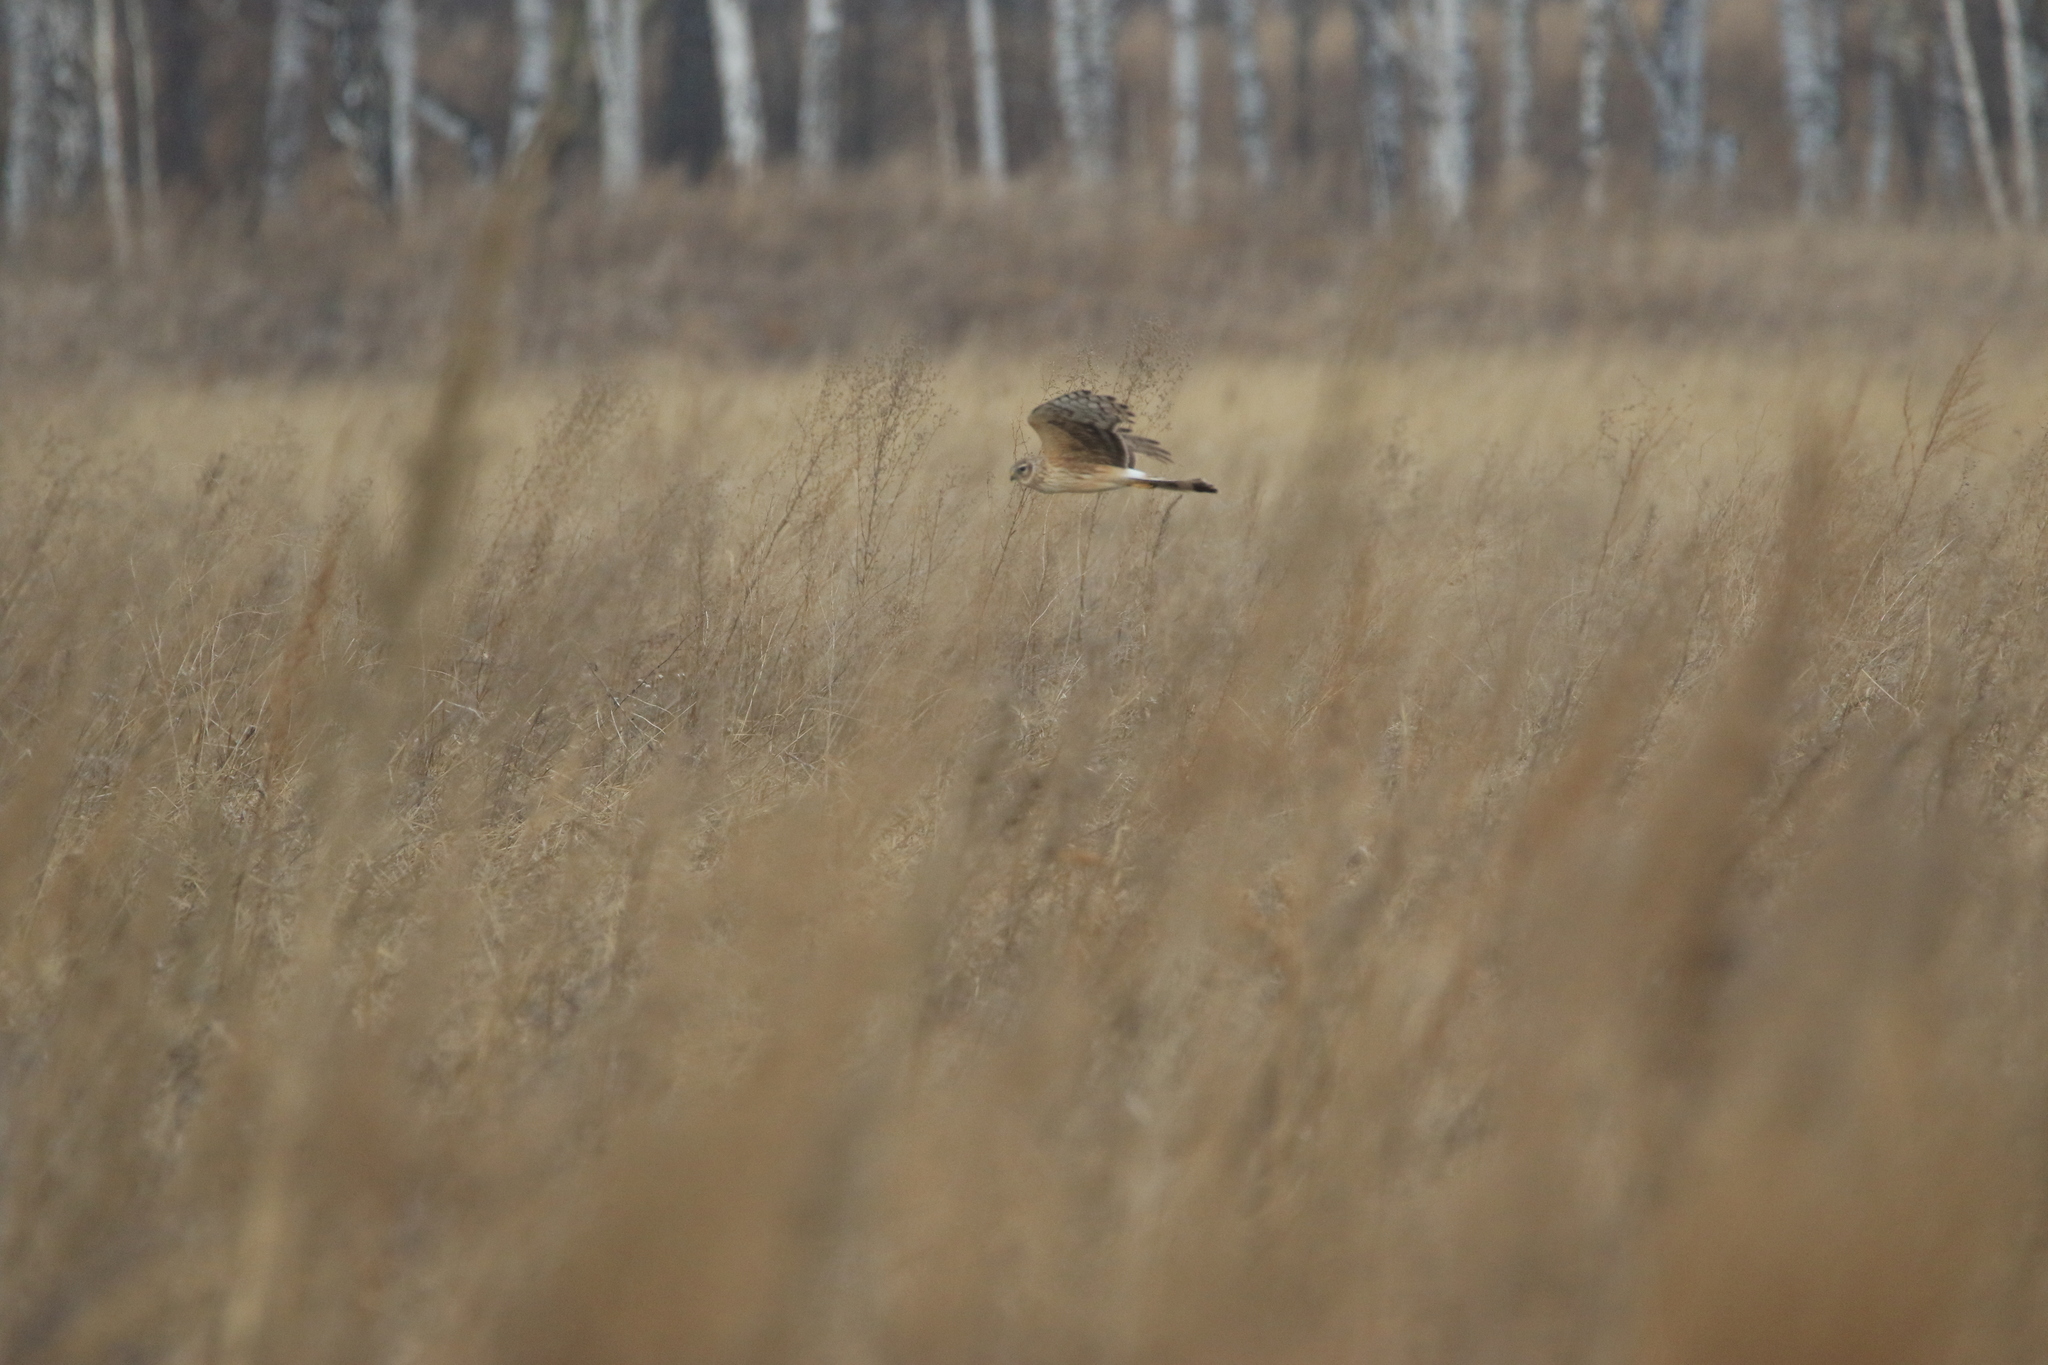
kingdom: Animalia
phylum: Chordata
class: Aves
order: Accipitriformes
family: Accipitridae
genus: Circus
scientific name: Circus cyaneus
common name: Hen harrier
